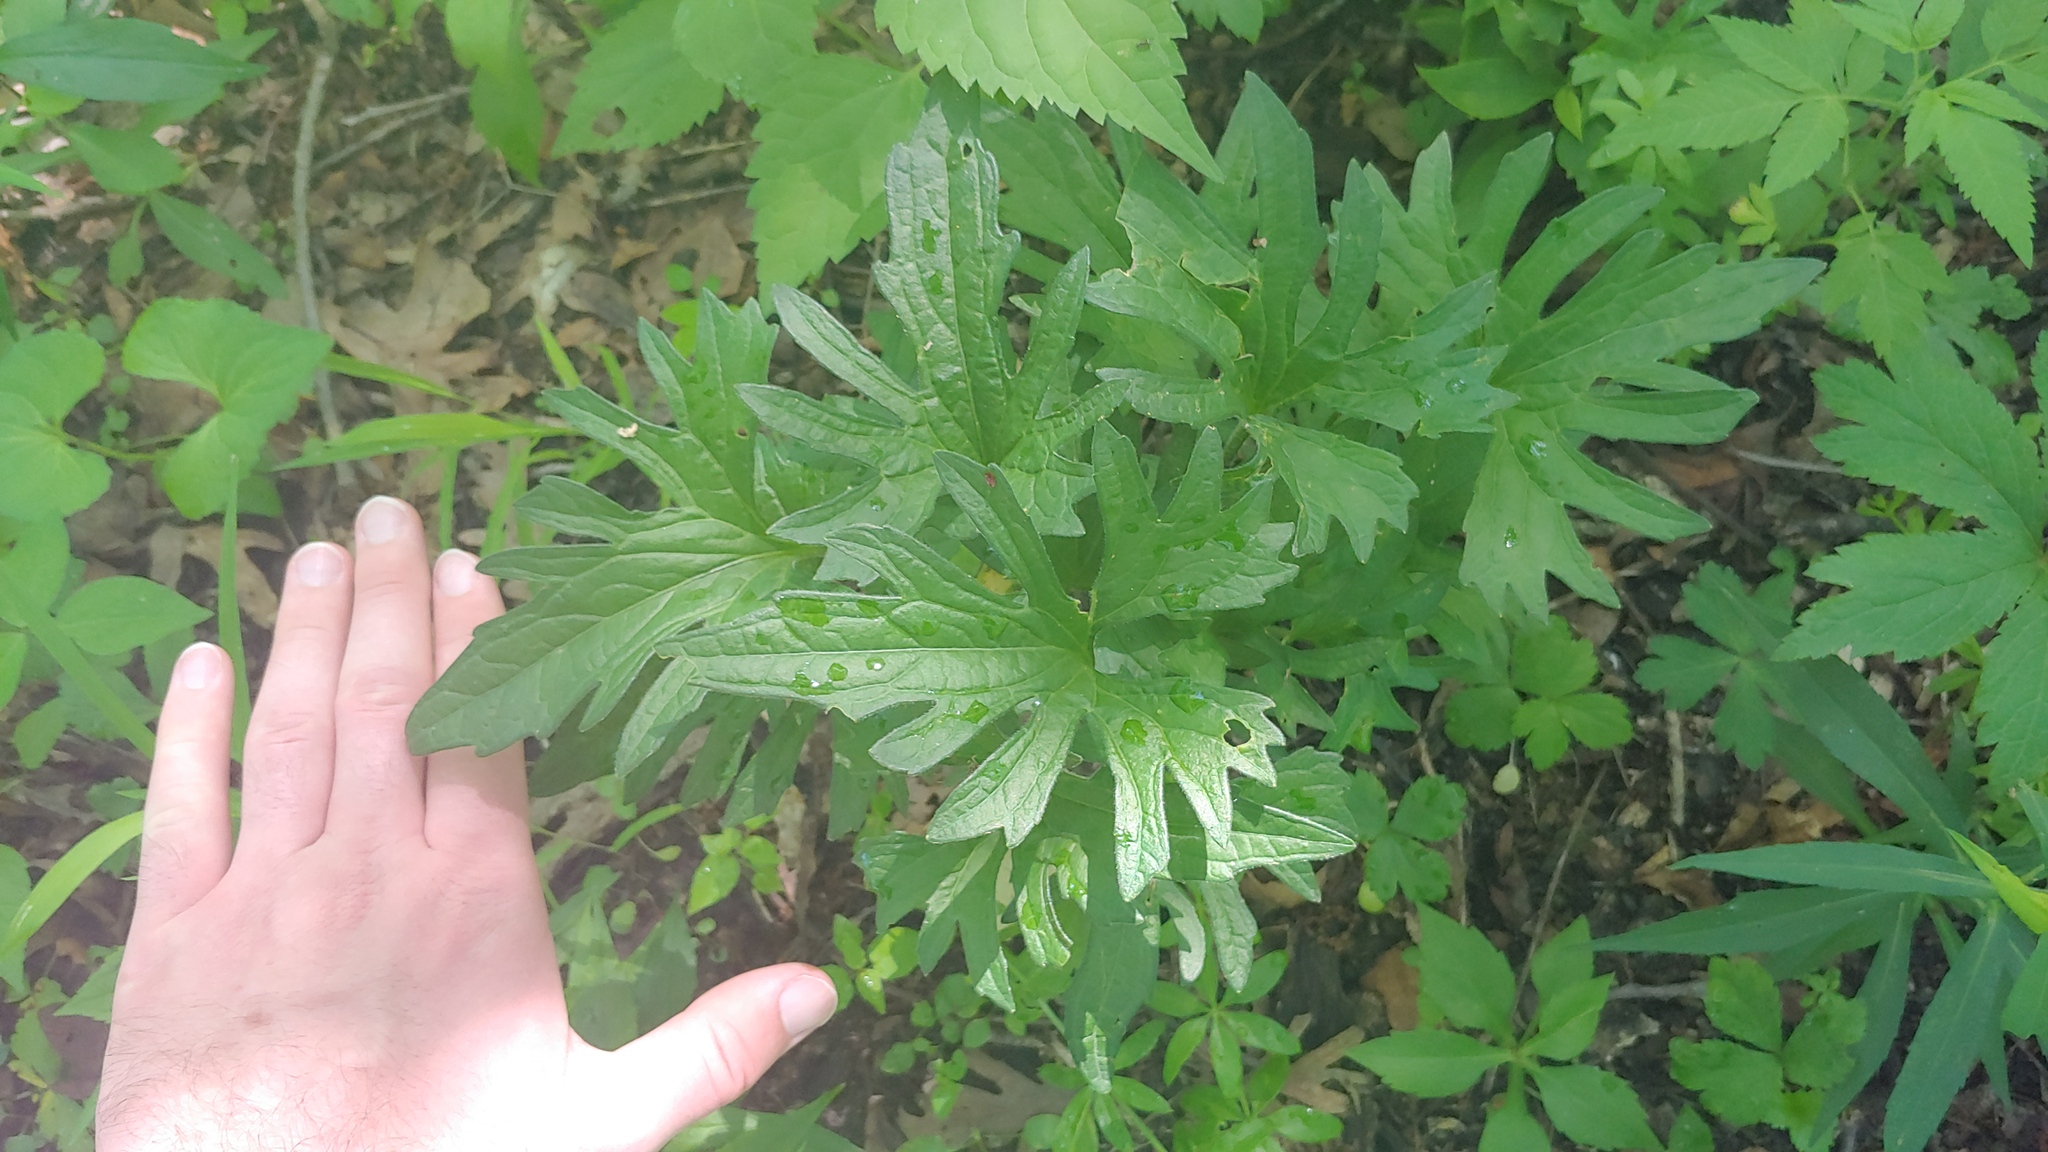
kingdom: Plantae
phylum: Tracheophyta
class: Magnoliopsida
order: Malpighiales
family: Violaceae
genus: Viola
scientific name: Viola subsinuata
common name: Wood violet
